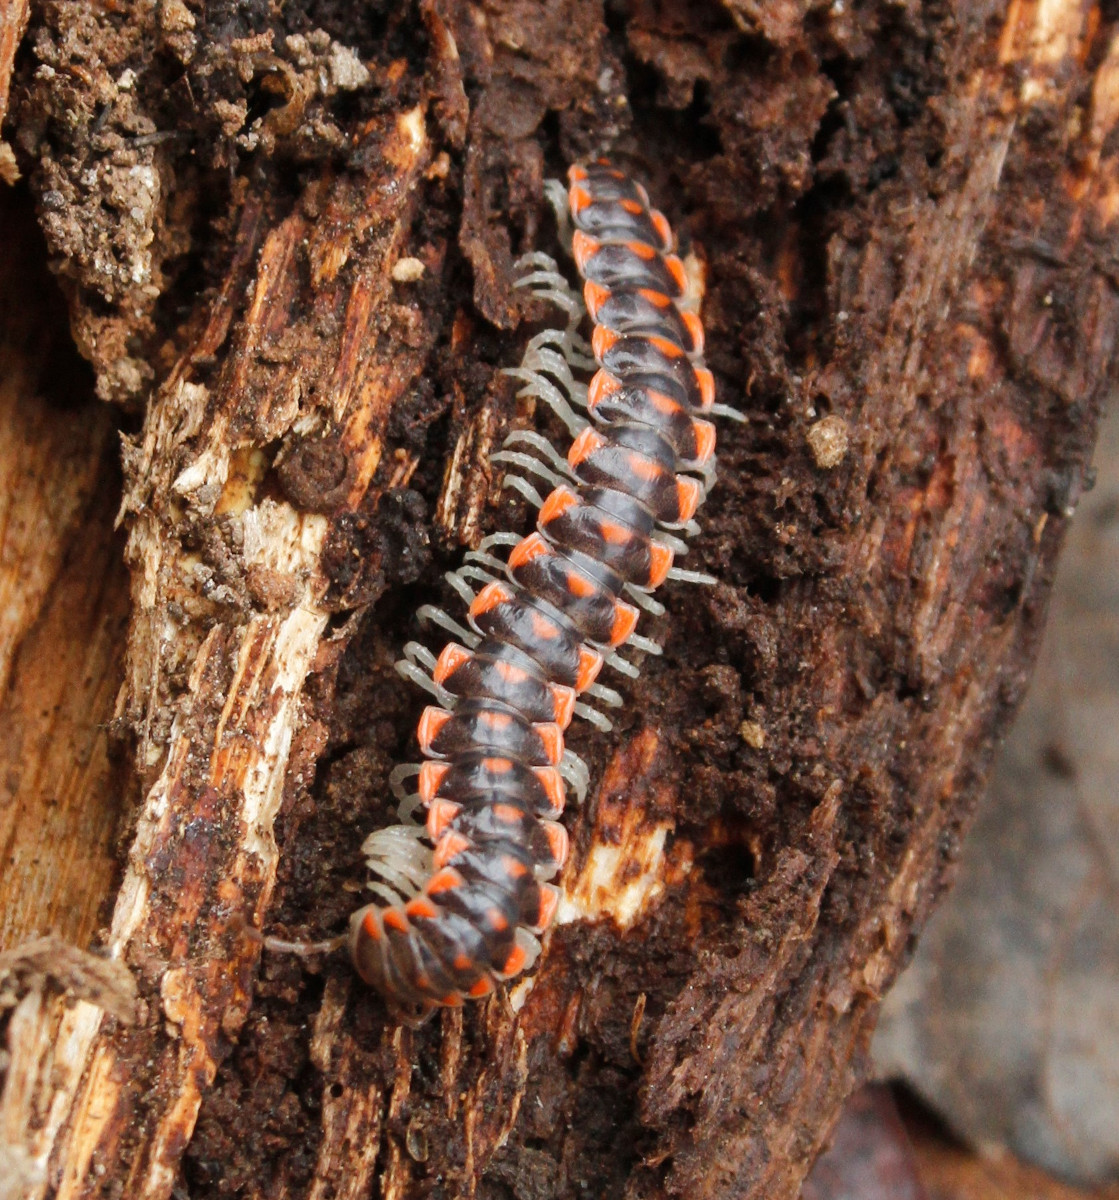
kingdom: Animalia
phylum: Arthropoda
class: Diplopoda
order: Polydesmida
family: Xystodesmidae
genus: Euryurus
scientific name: Euryurus carolinensis
